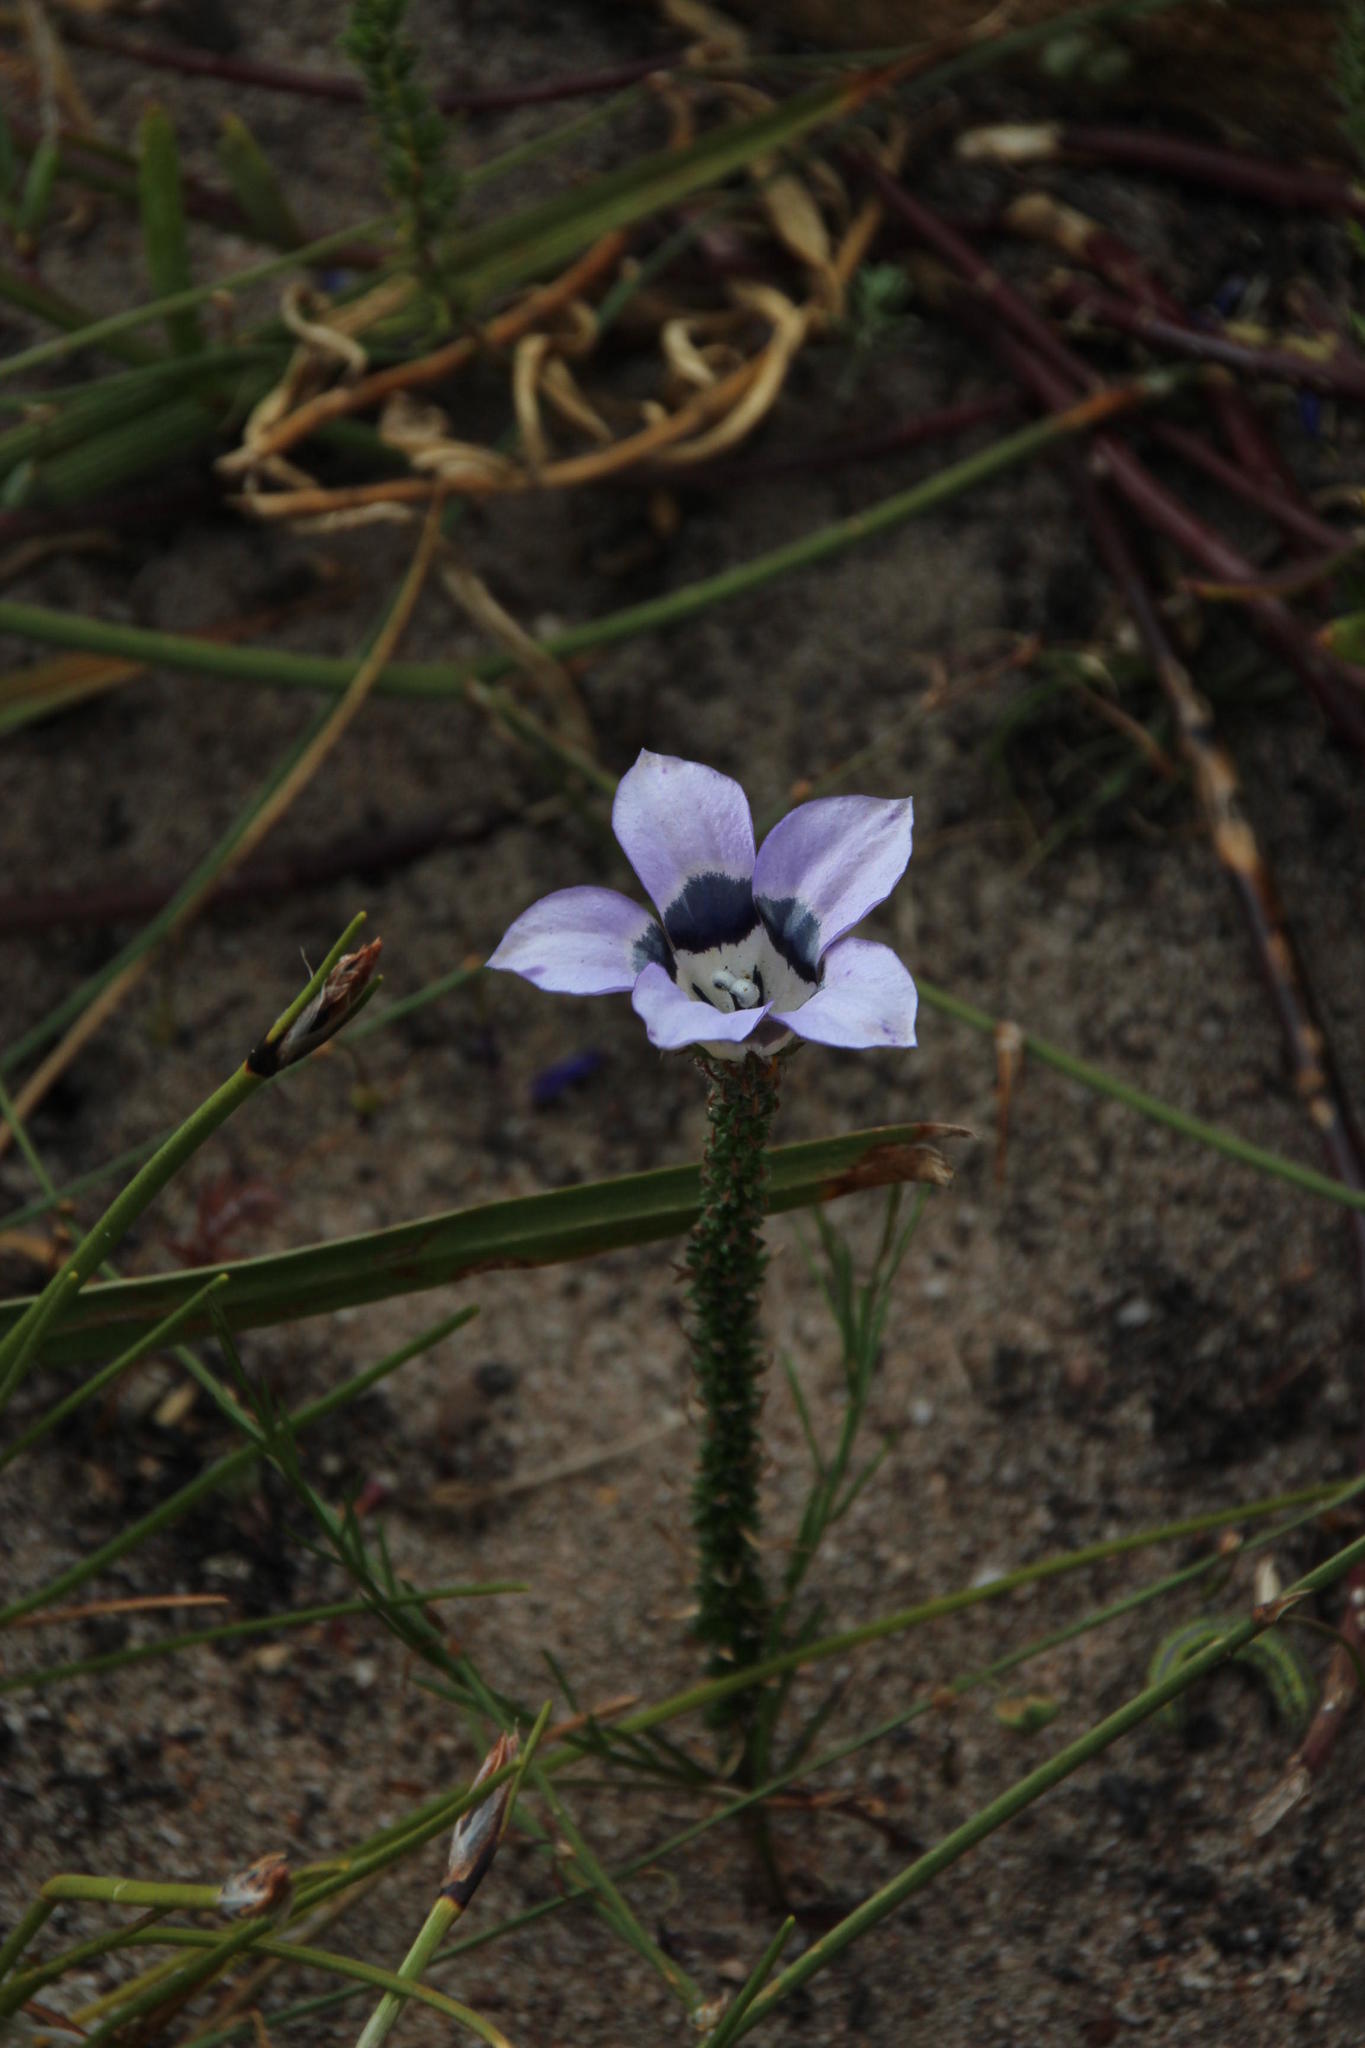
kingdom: Plantae
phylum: Tracheophyta
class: Magnoliopsida
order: Asterales
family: Campanulaceae
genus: Roella
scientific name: Roella ciliata
